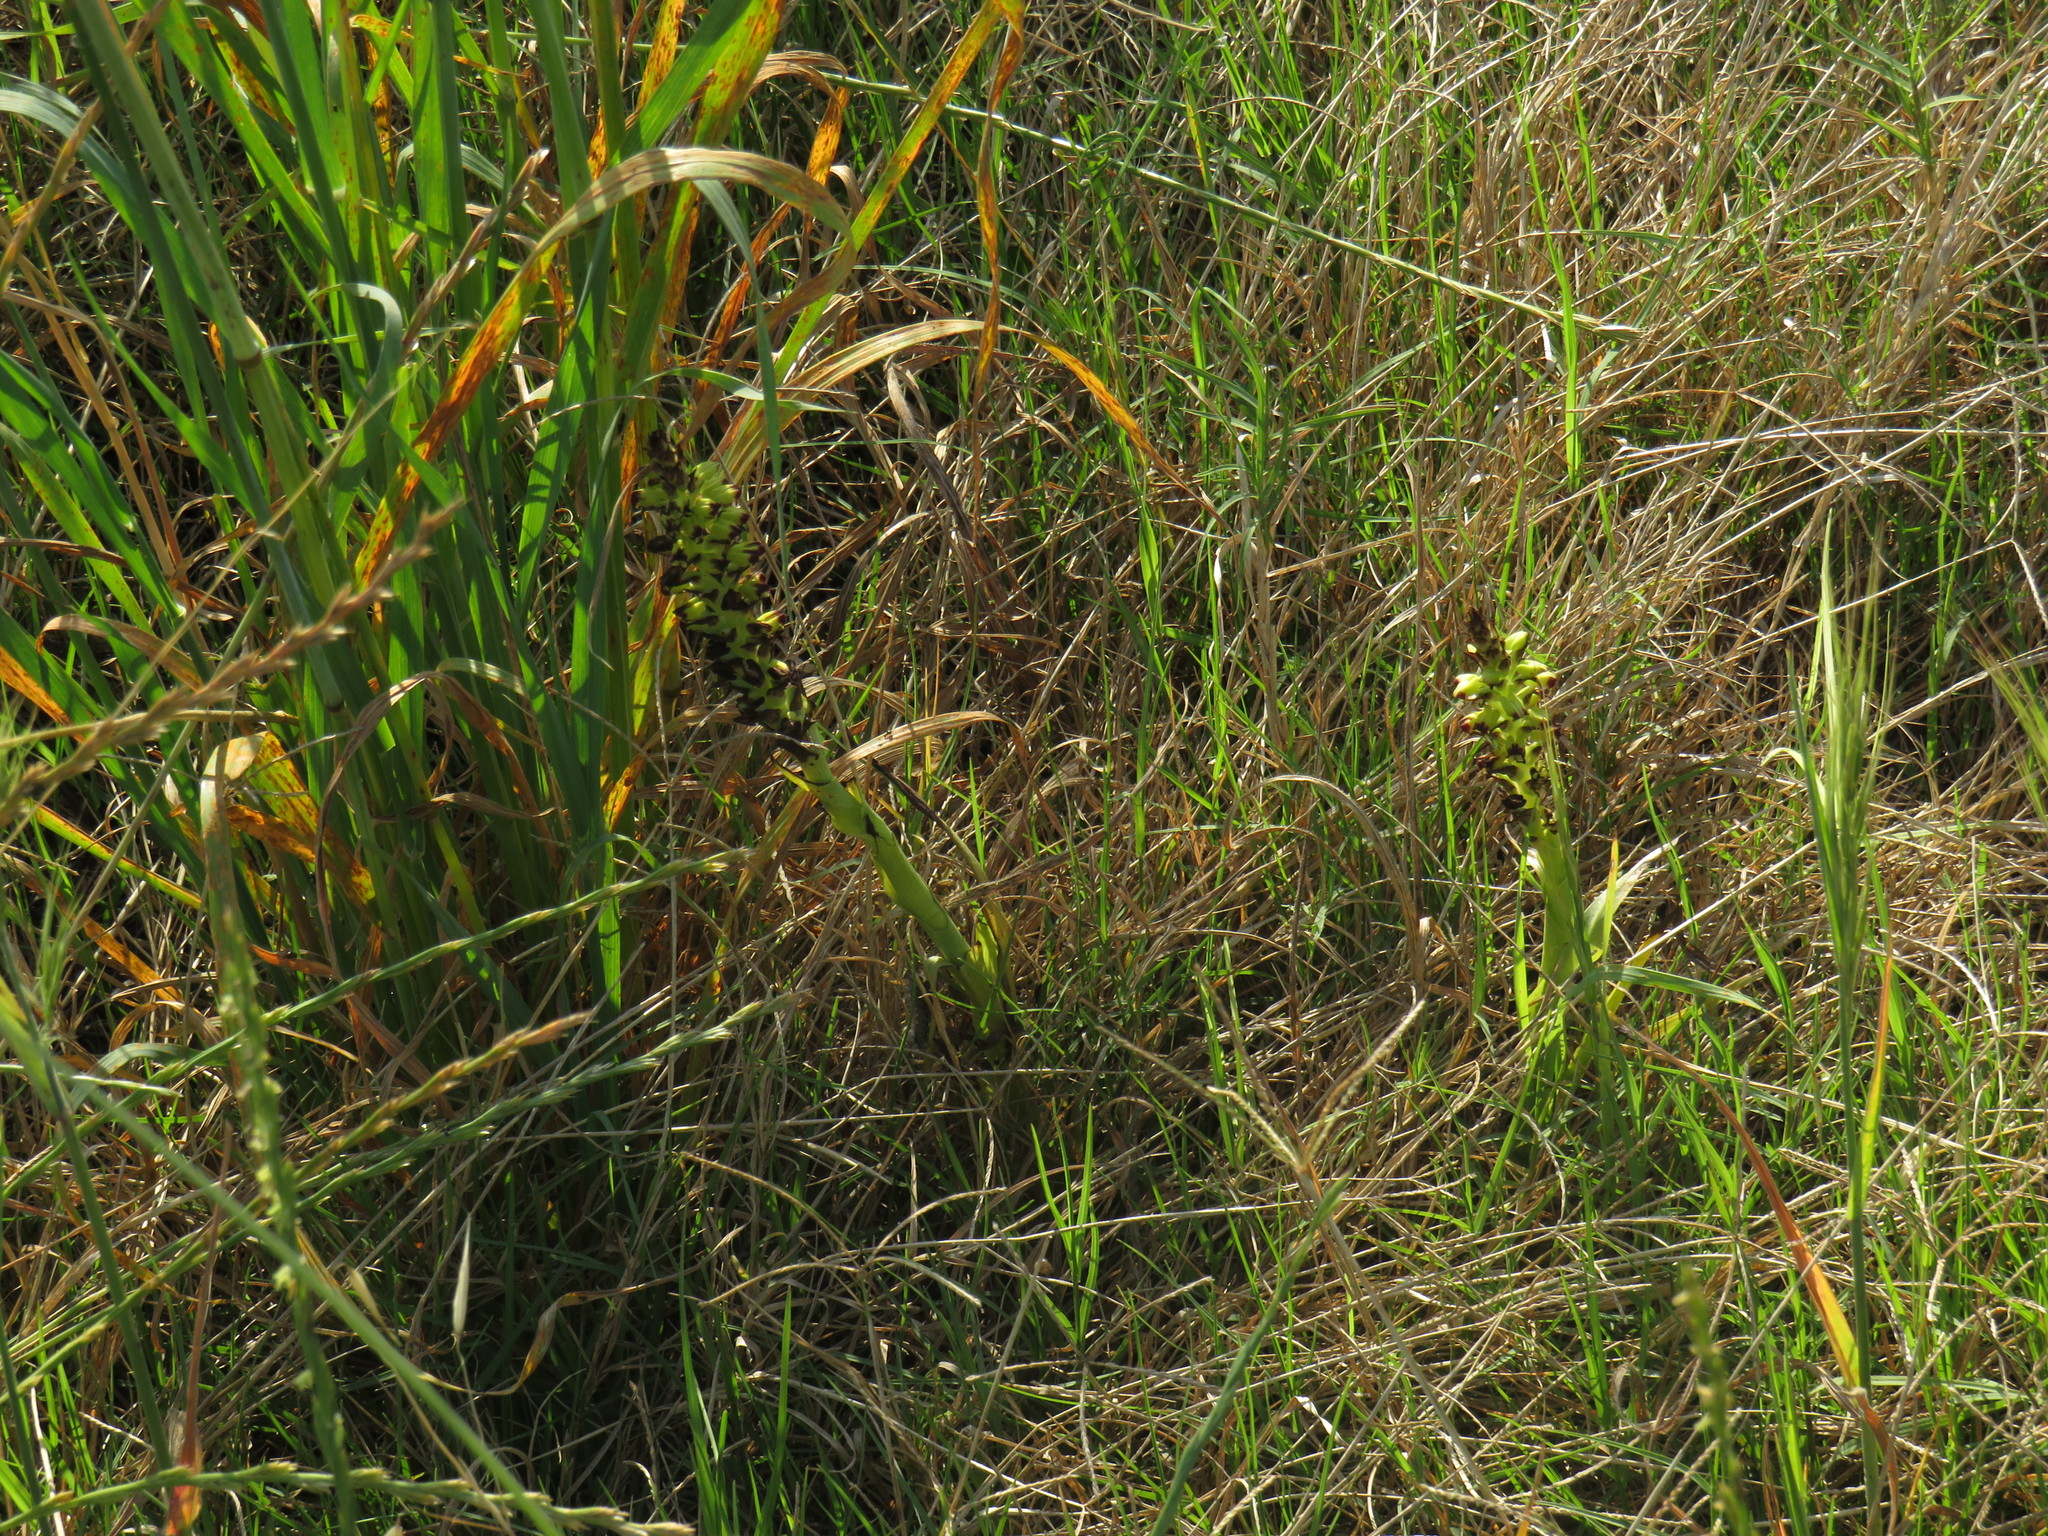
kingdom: Plantae
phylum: Tracheophyta
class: Liliopsida
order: Asparagales
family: Orchidaceae
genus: Corycium
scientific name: Corycium orobanchoides
